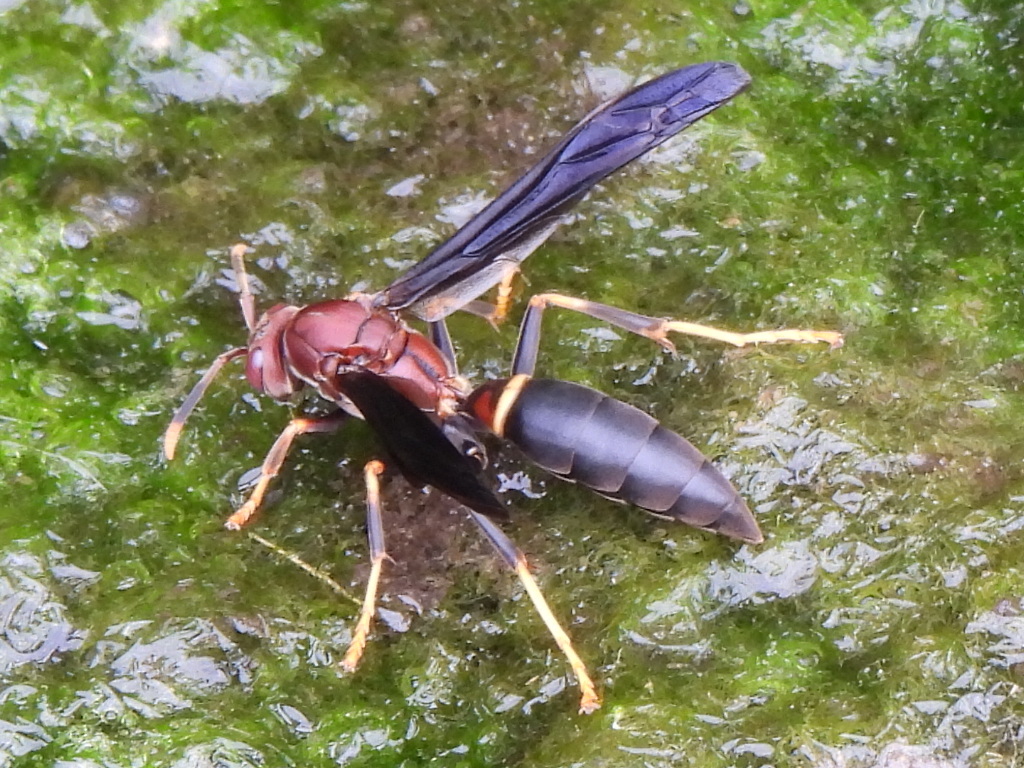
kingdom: Animalia
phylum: Arthropoda
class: Insecta
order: Hymenoptera
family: Eumenidae
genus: Polistes
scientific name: Polistes annularis
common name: Ringed paper wasp
